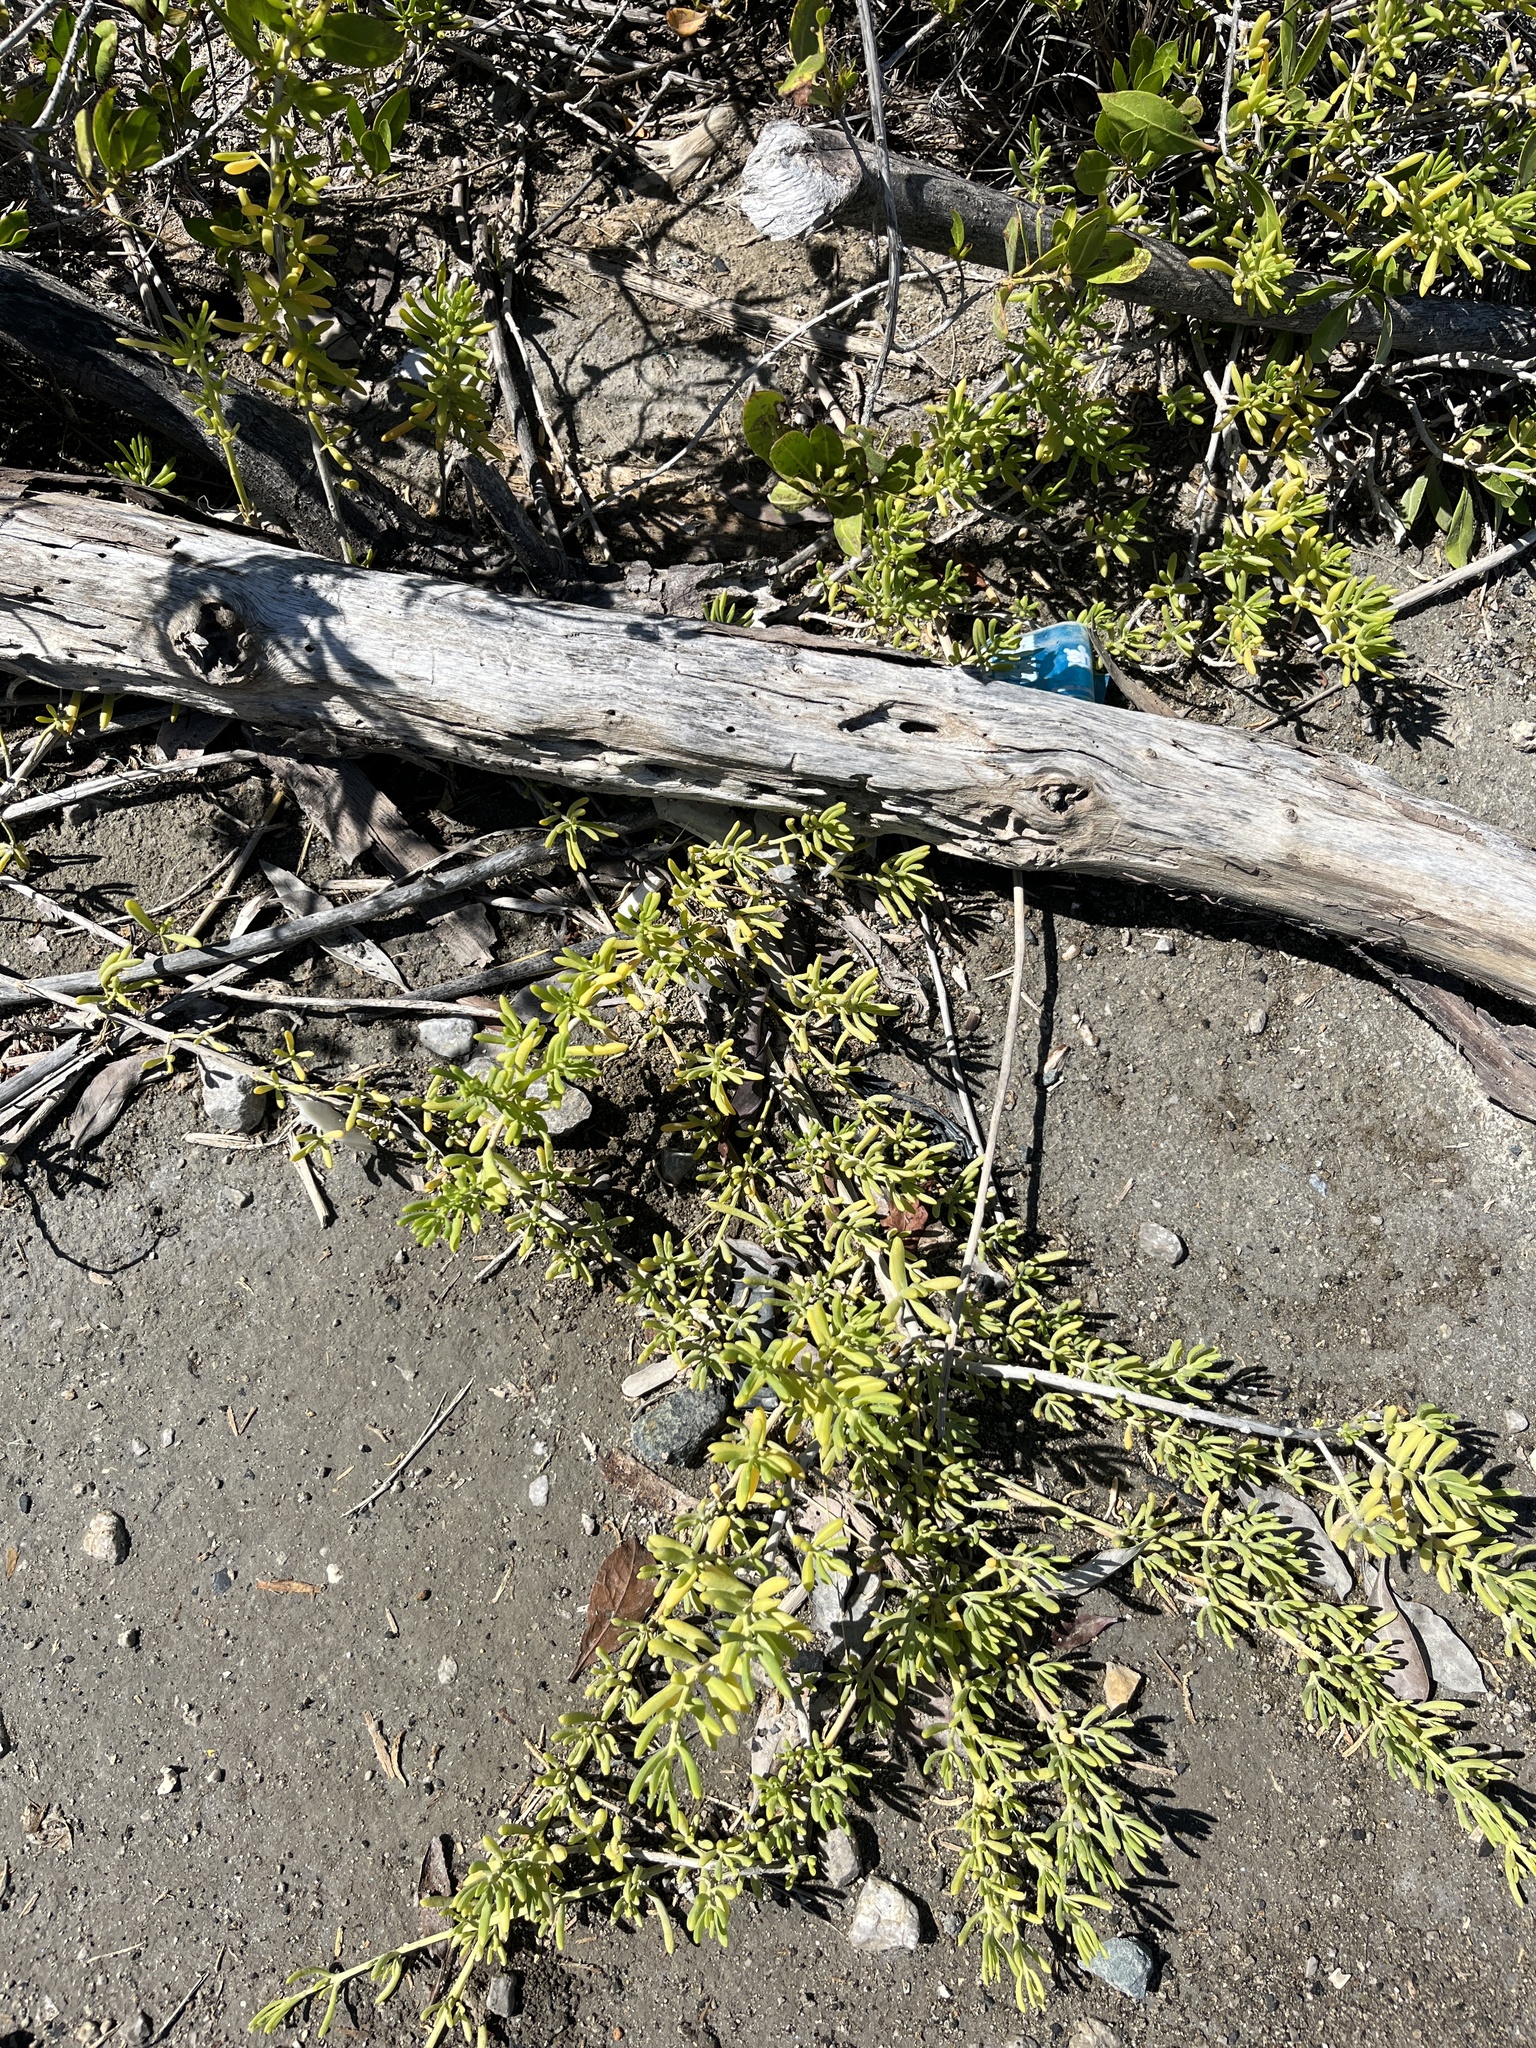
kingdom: Plantae
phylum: Tracheophyta
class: Magnoliopsida
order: Brassicales
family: Bataceae
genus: Batis
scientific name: Batis maritima
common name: Turtleweed
